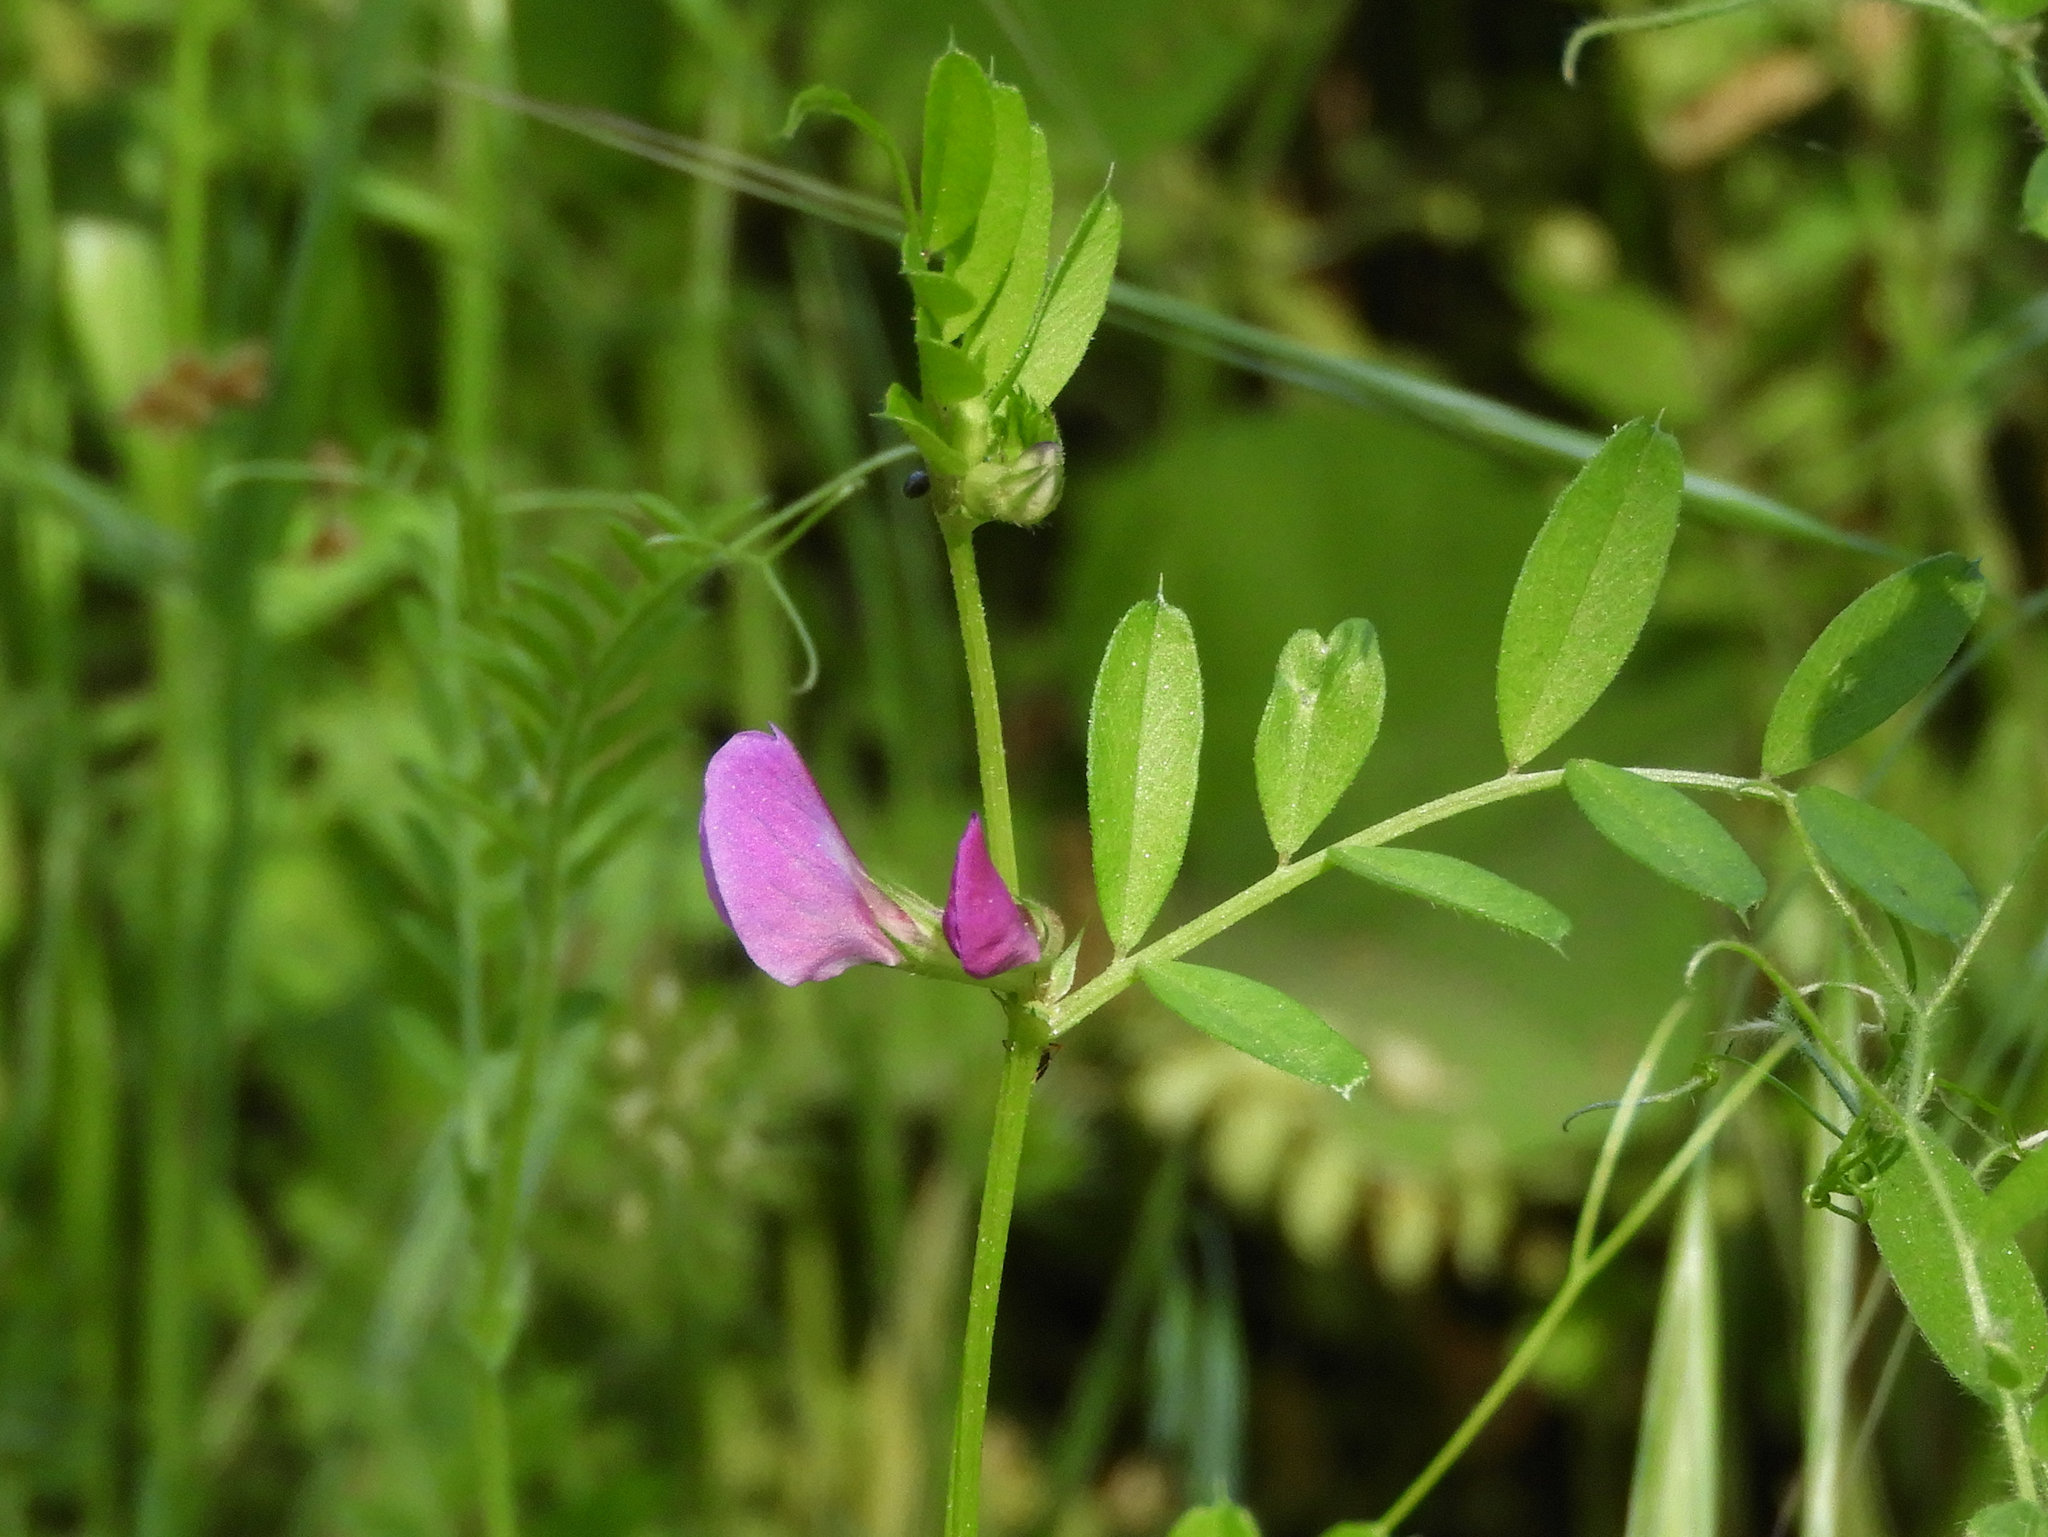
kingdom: Plantae
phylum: Tracheophyta
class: Magnoliopsida
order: Fabales
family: Fabaceae
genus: Vicia
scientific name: Vicia sativa
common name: Garden vetch
